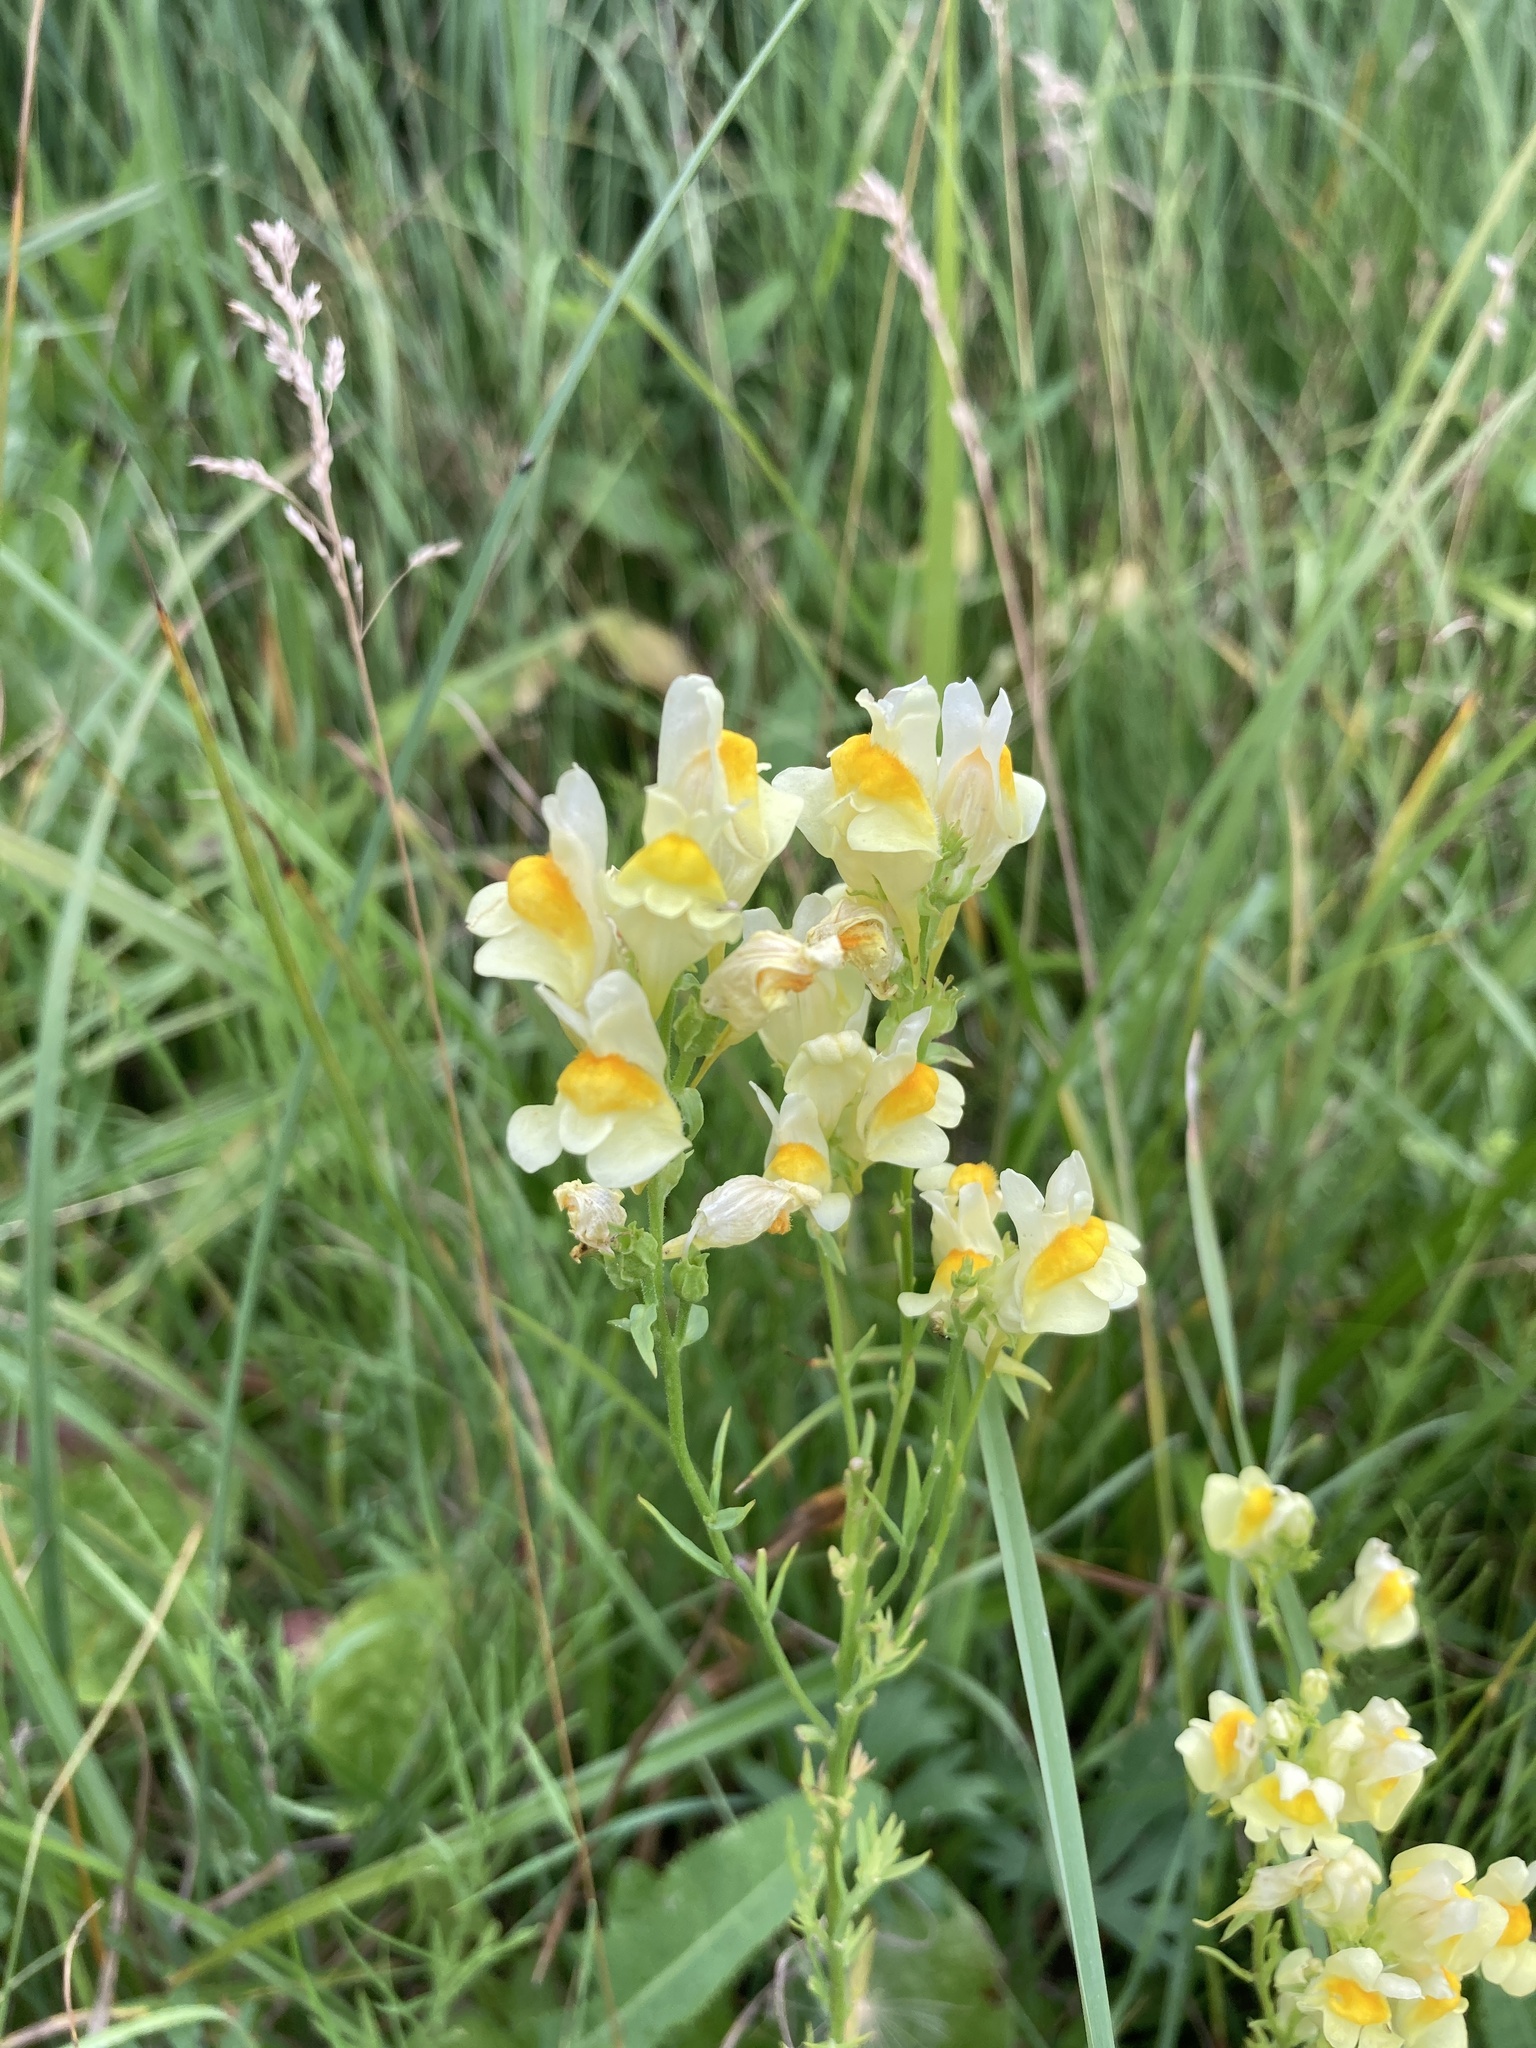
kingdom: Plantae
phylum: Tracheophyta
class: Magnoliopsida
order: Lamiales
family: Plantaginaceae
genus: Linaria
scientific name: Linaria vulgaris
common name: Butter and eggs
